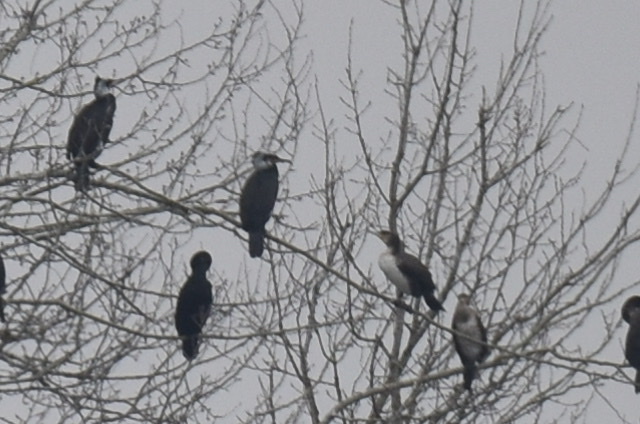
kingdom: Animalia
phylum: Chordata
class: Aves
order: Suliformes
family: Phalacrocoracidae
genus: Phalacrocorax
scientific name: Phalacrocorax carbo
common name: Great cormorant
